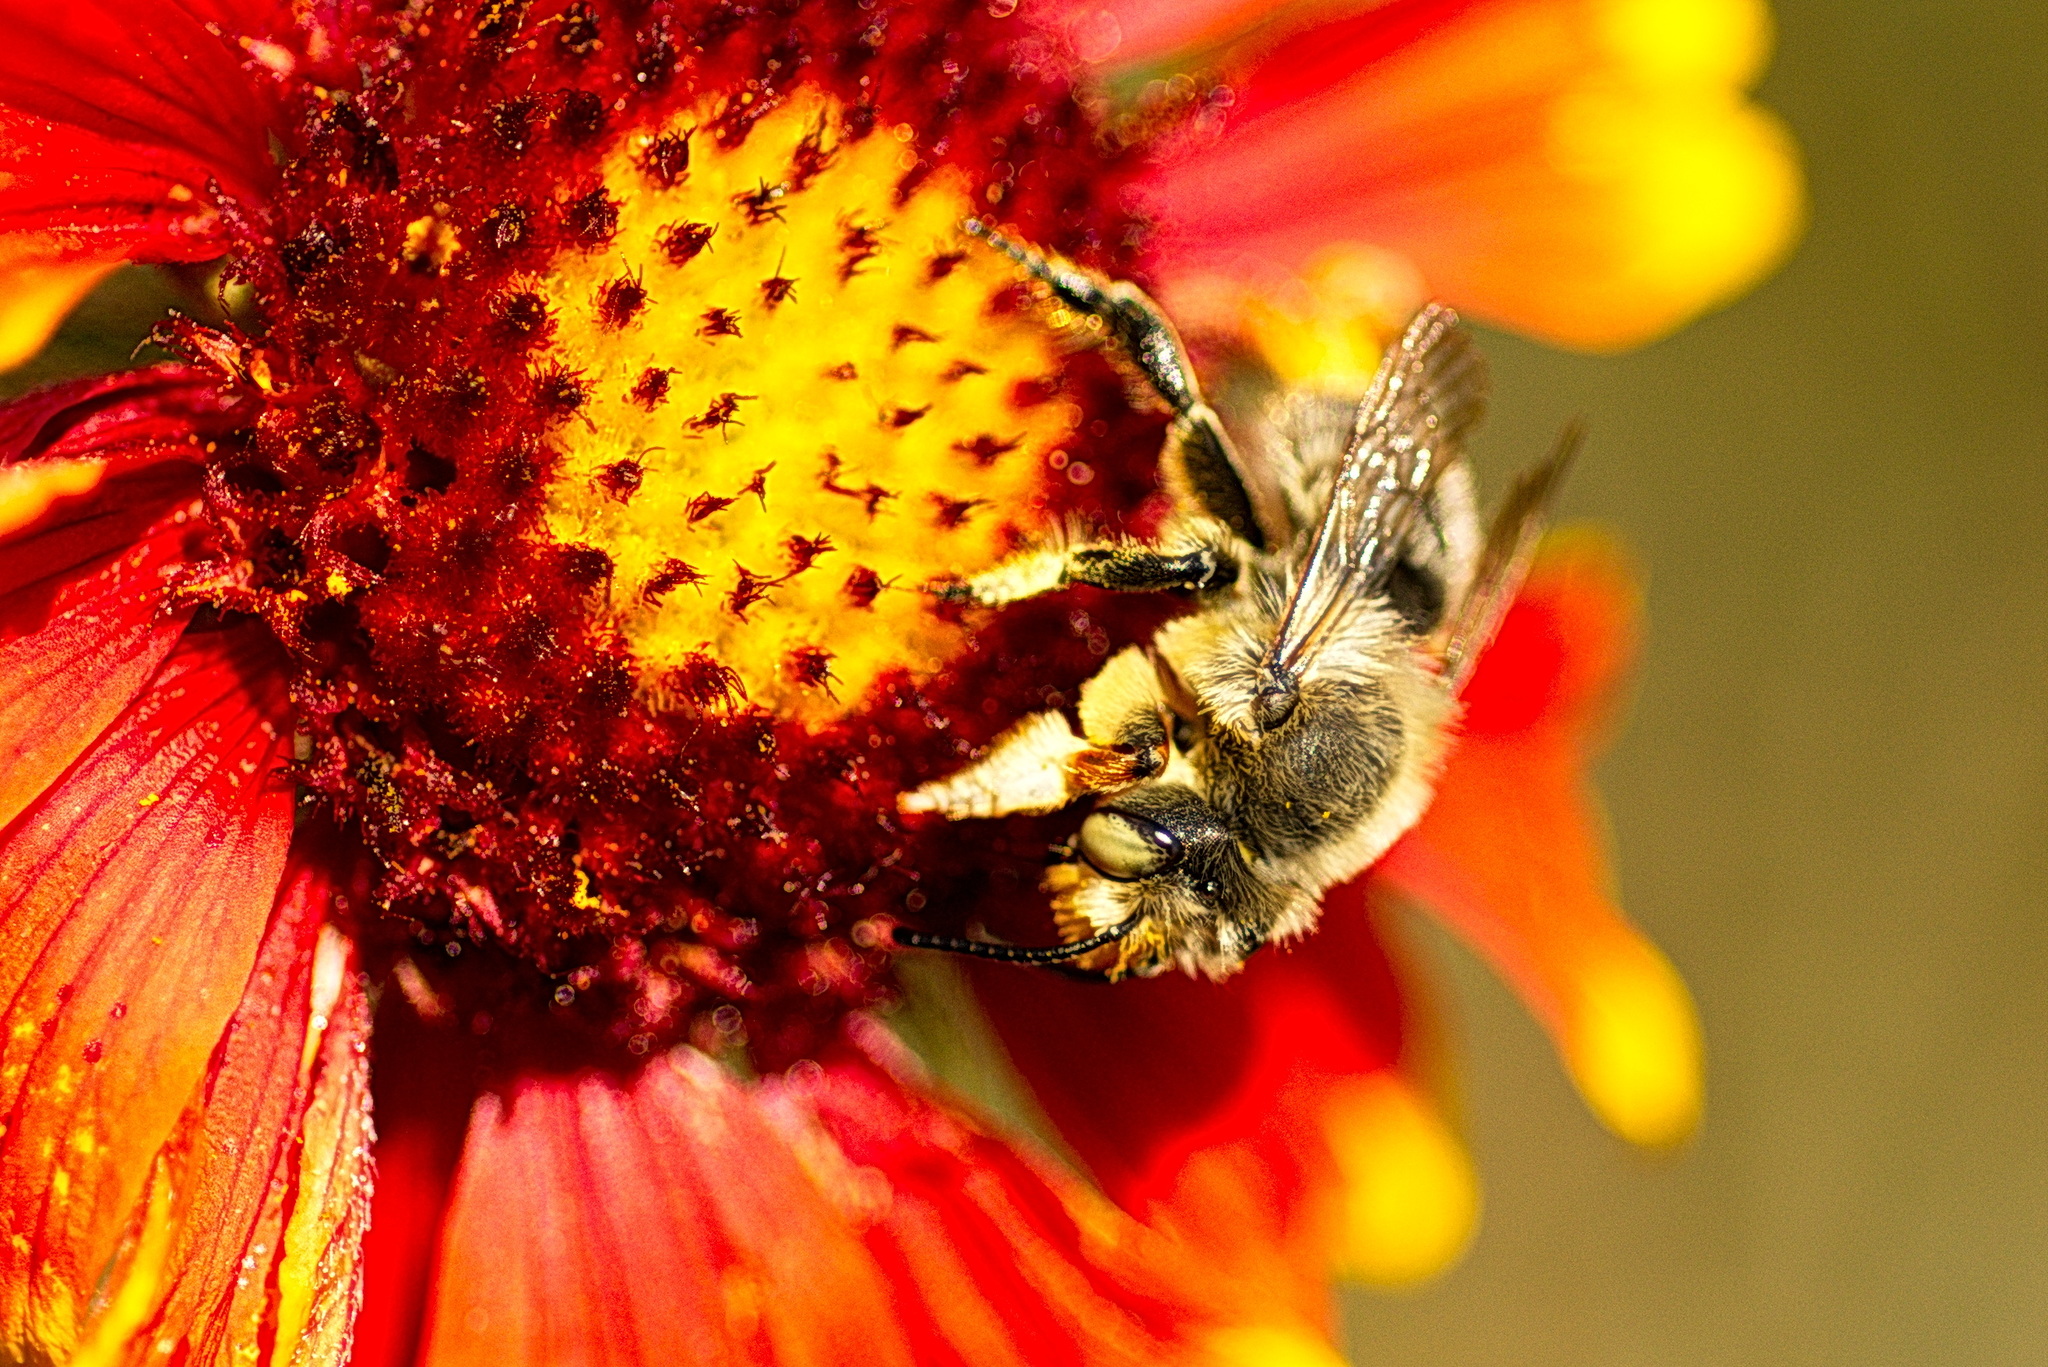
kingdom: Animalia
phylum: Arthropoda
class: Insecta
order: Hymenoptera
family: Megachilidae
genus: Xanthosarus
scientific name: Xanthosarus
